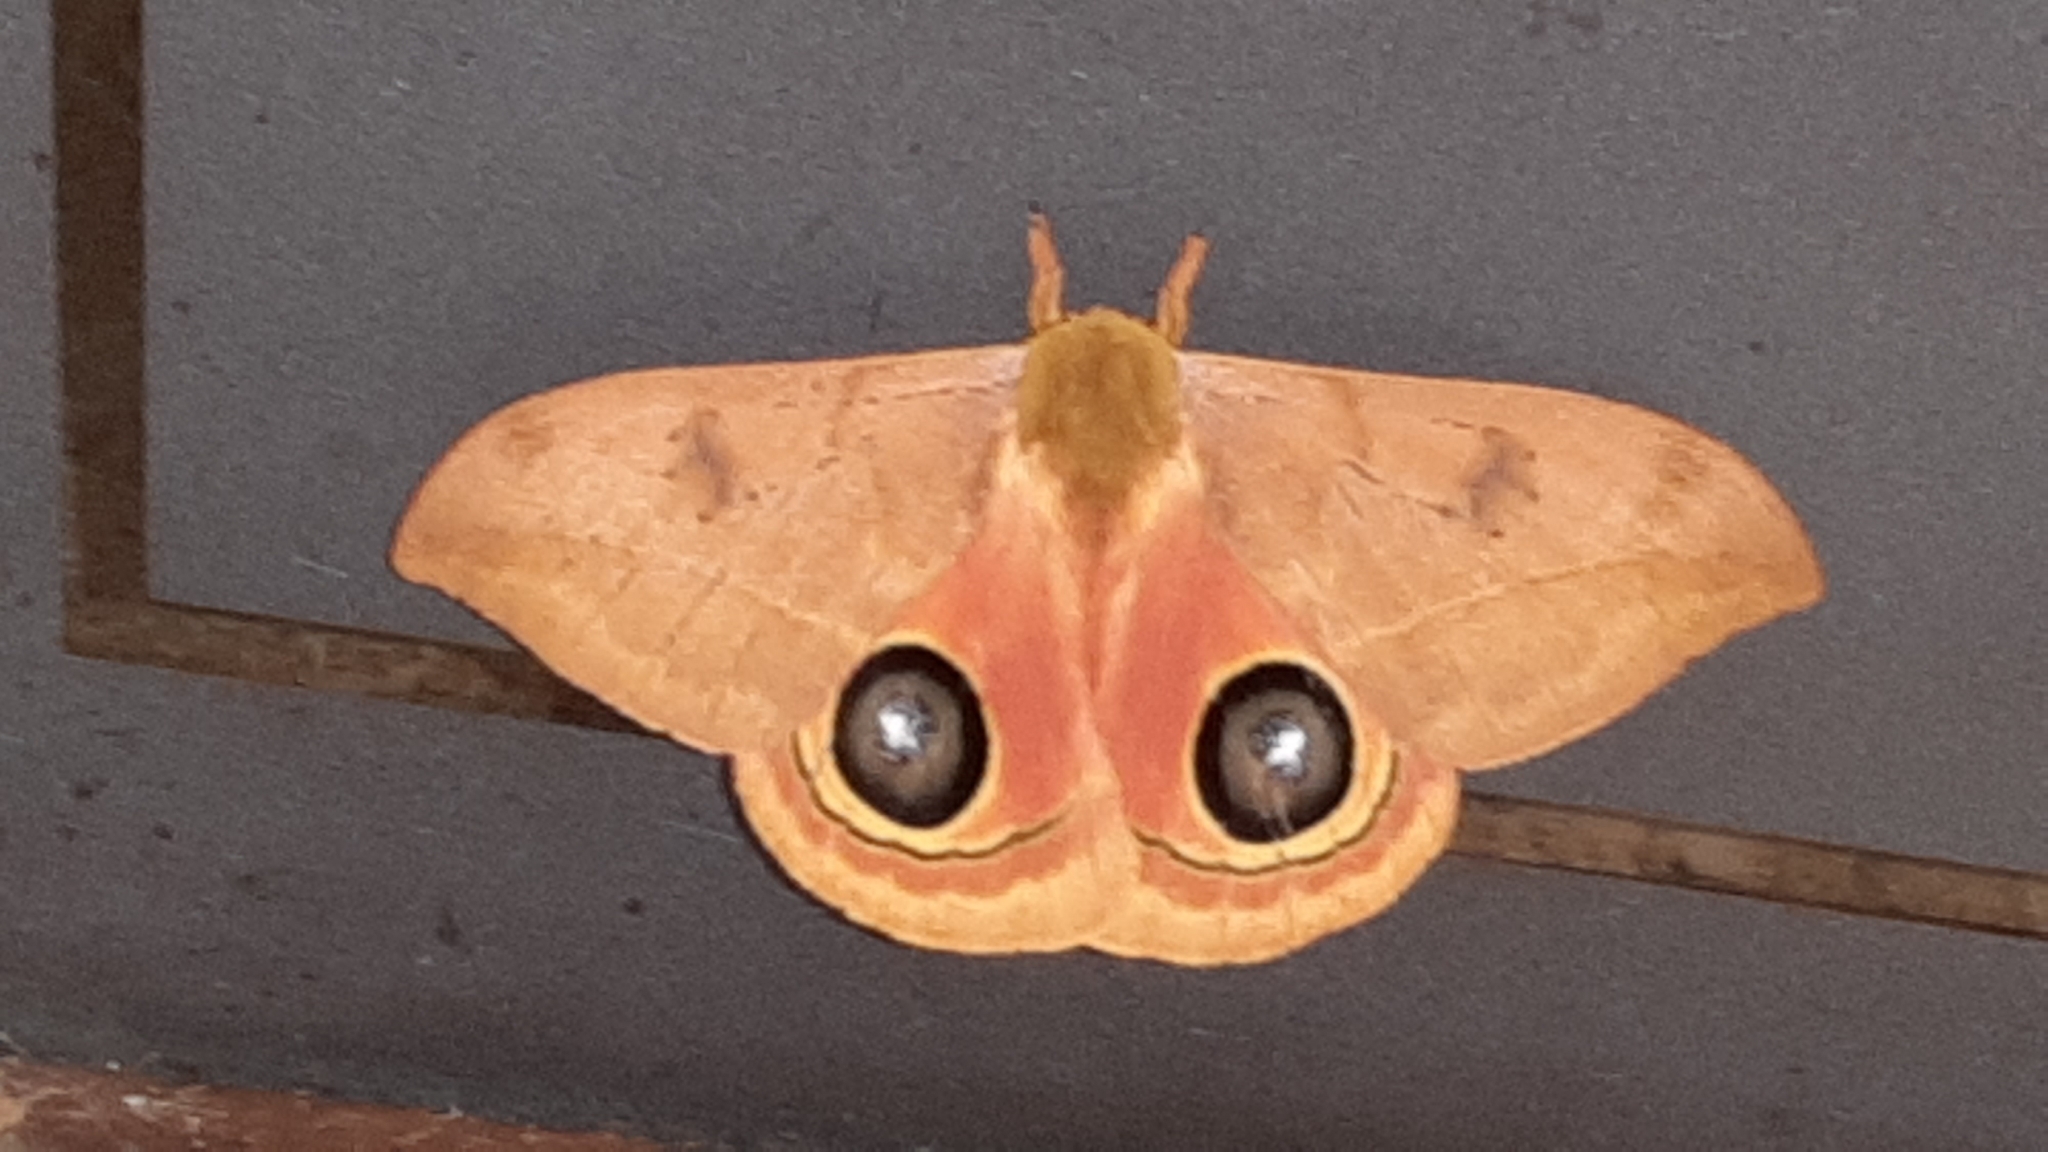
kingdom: Animalia
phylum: Arthropoda
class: Insecta
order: Lepidoptera
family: Saturniidae
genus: Automeris
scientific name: Automeris tridens
